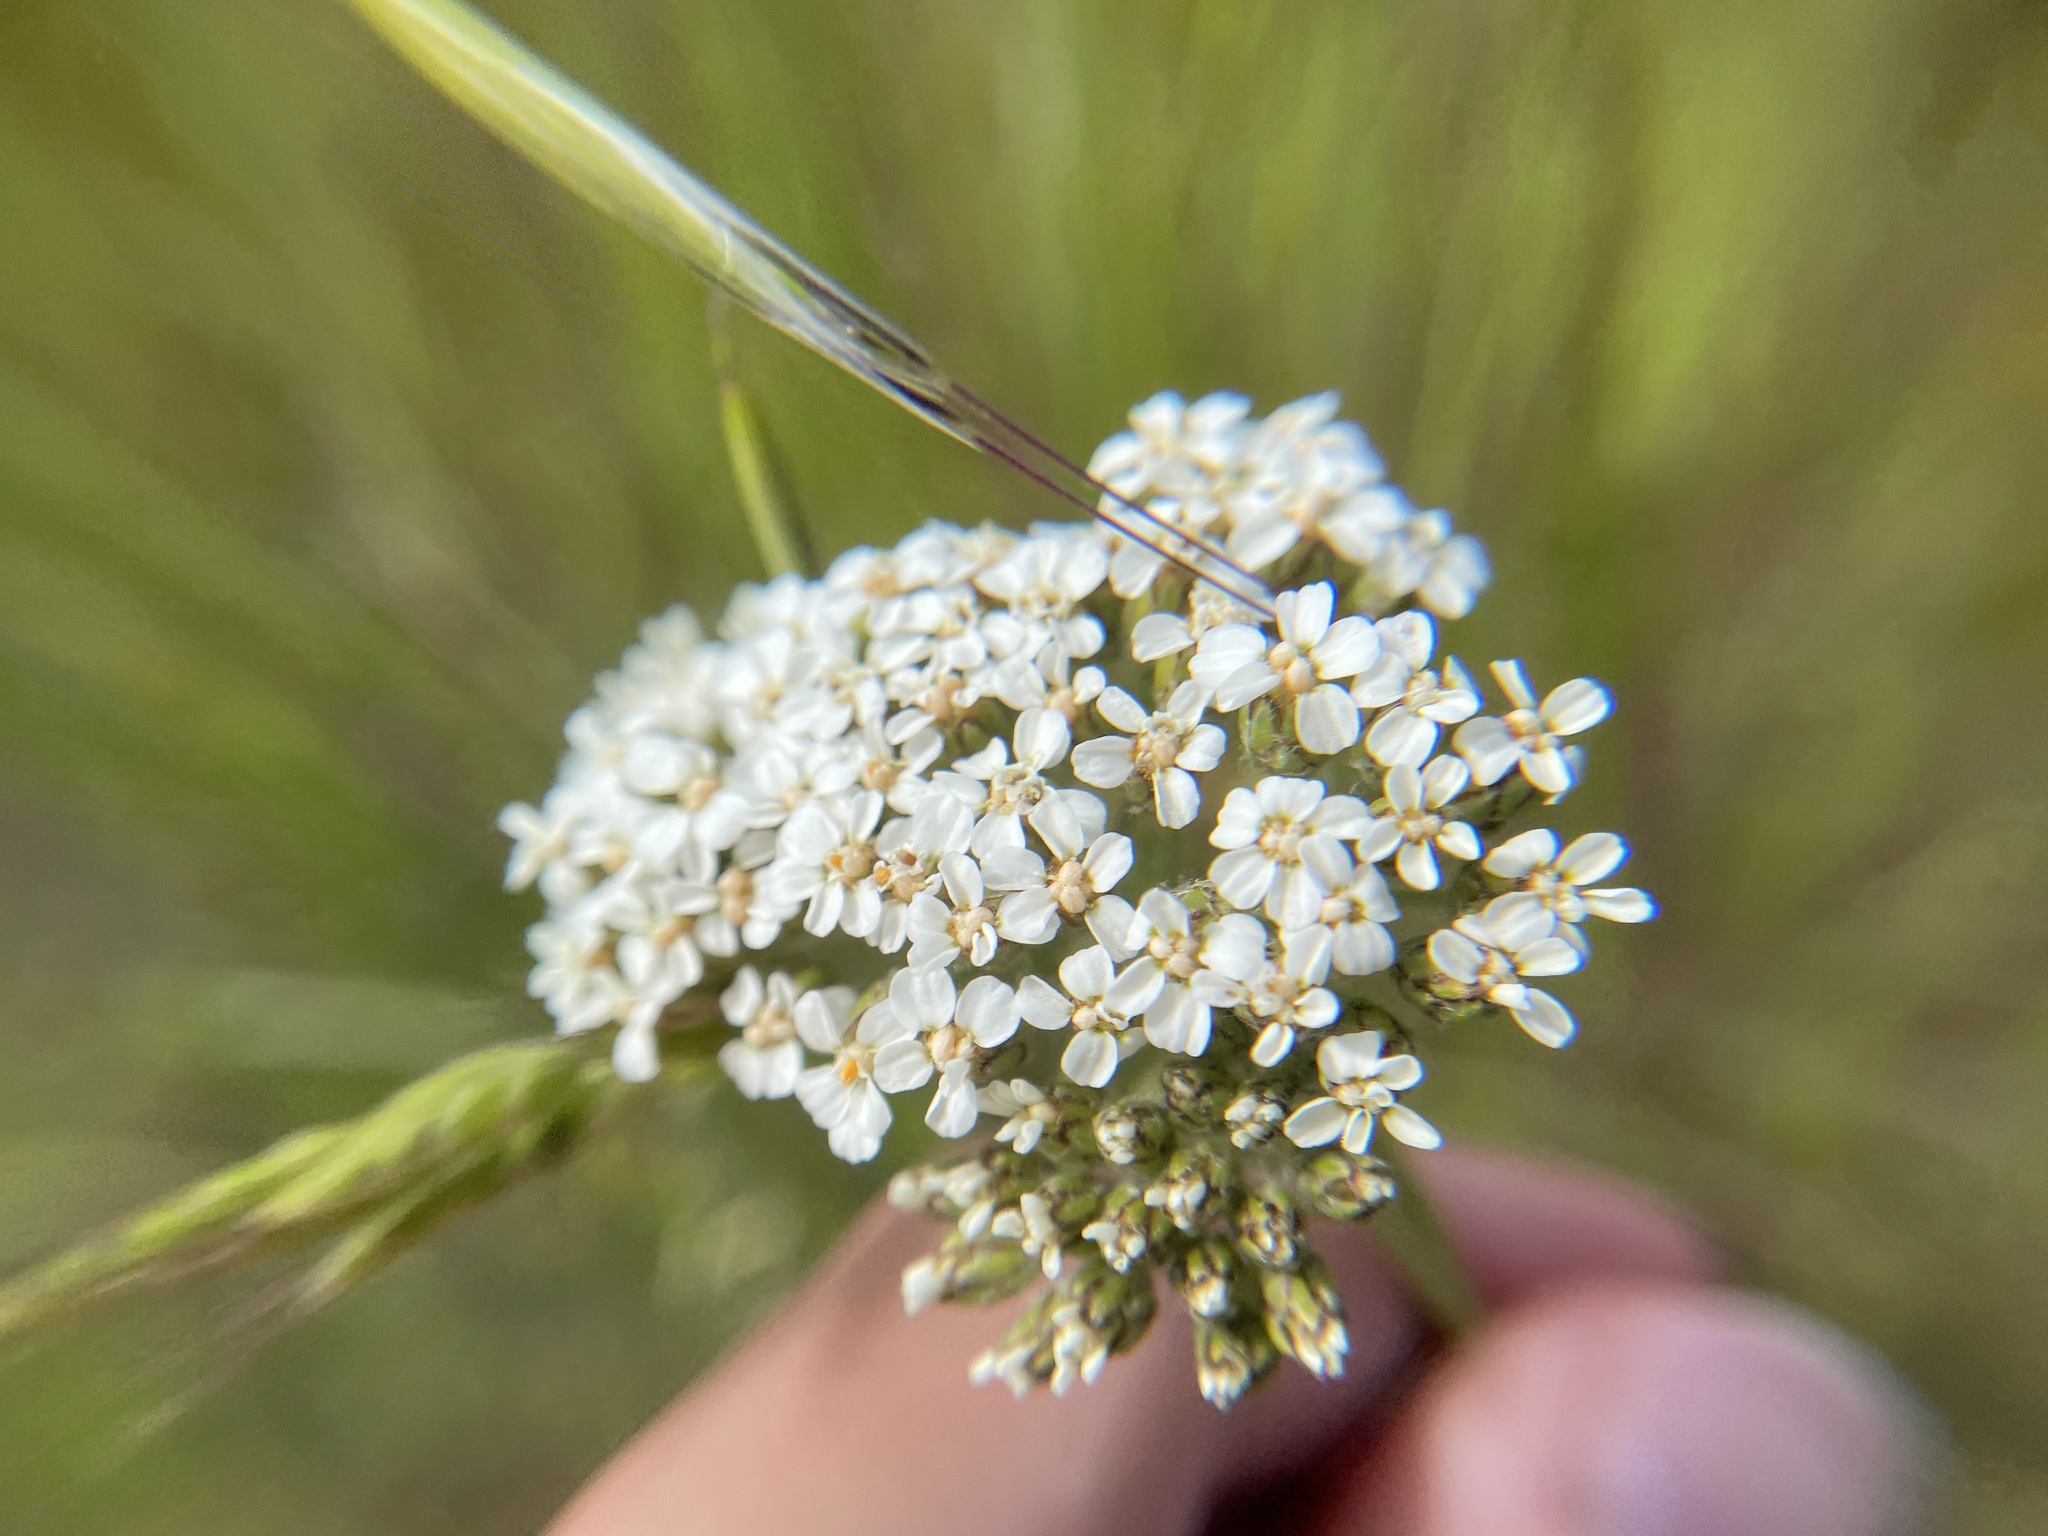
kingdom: Plantae
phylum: Tracheophyta
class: Magnoliopsida
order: Asterales
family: Asteraceae
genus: Achillea
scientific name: Achillea millefolium
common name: Yarrow
